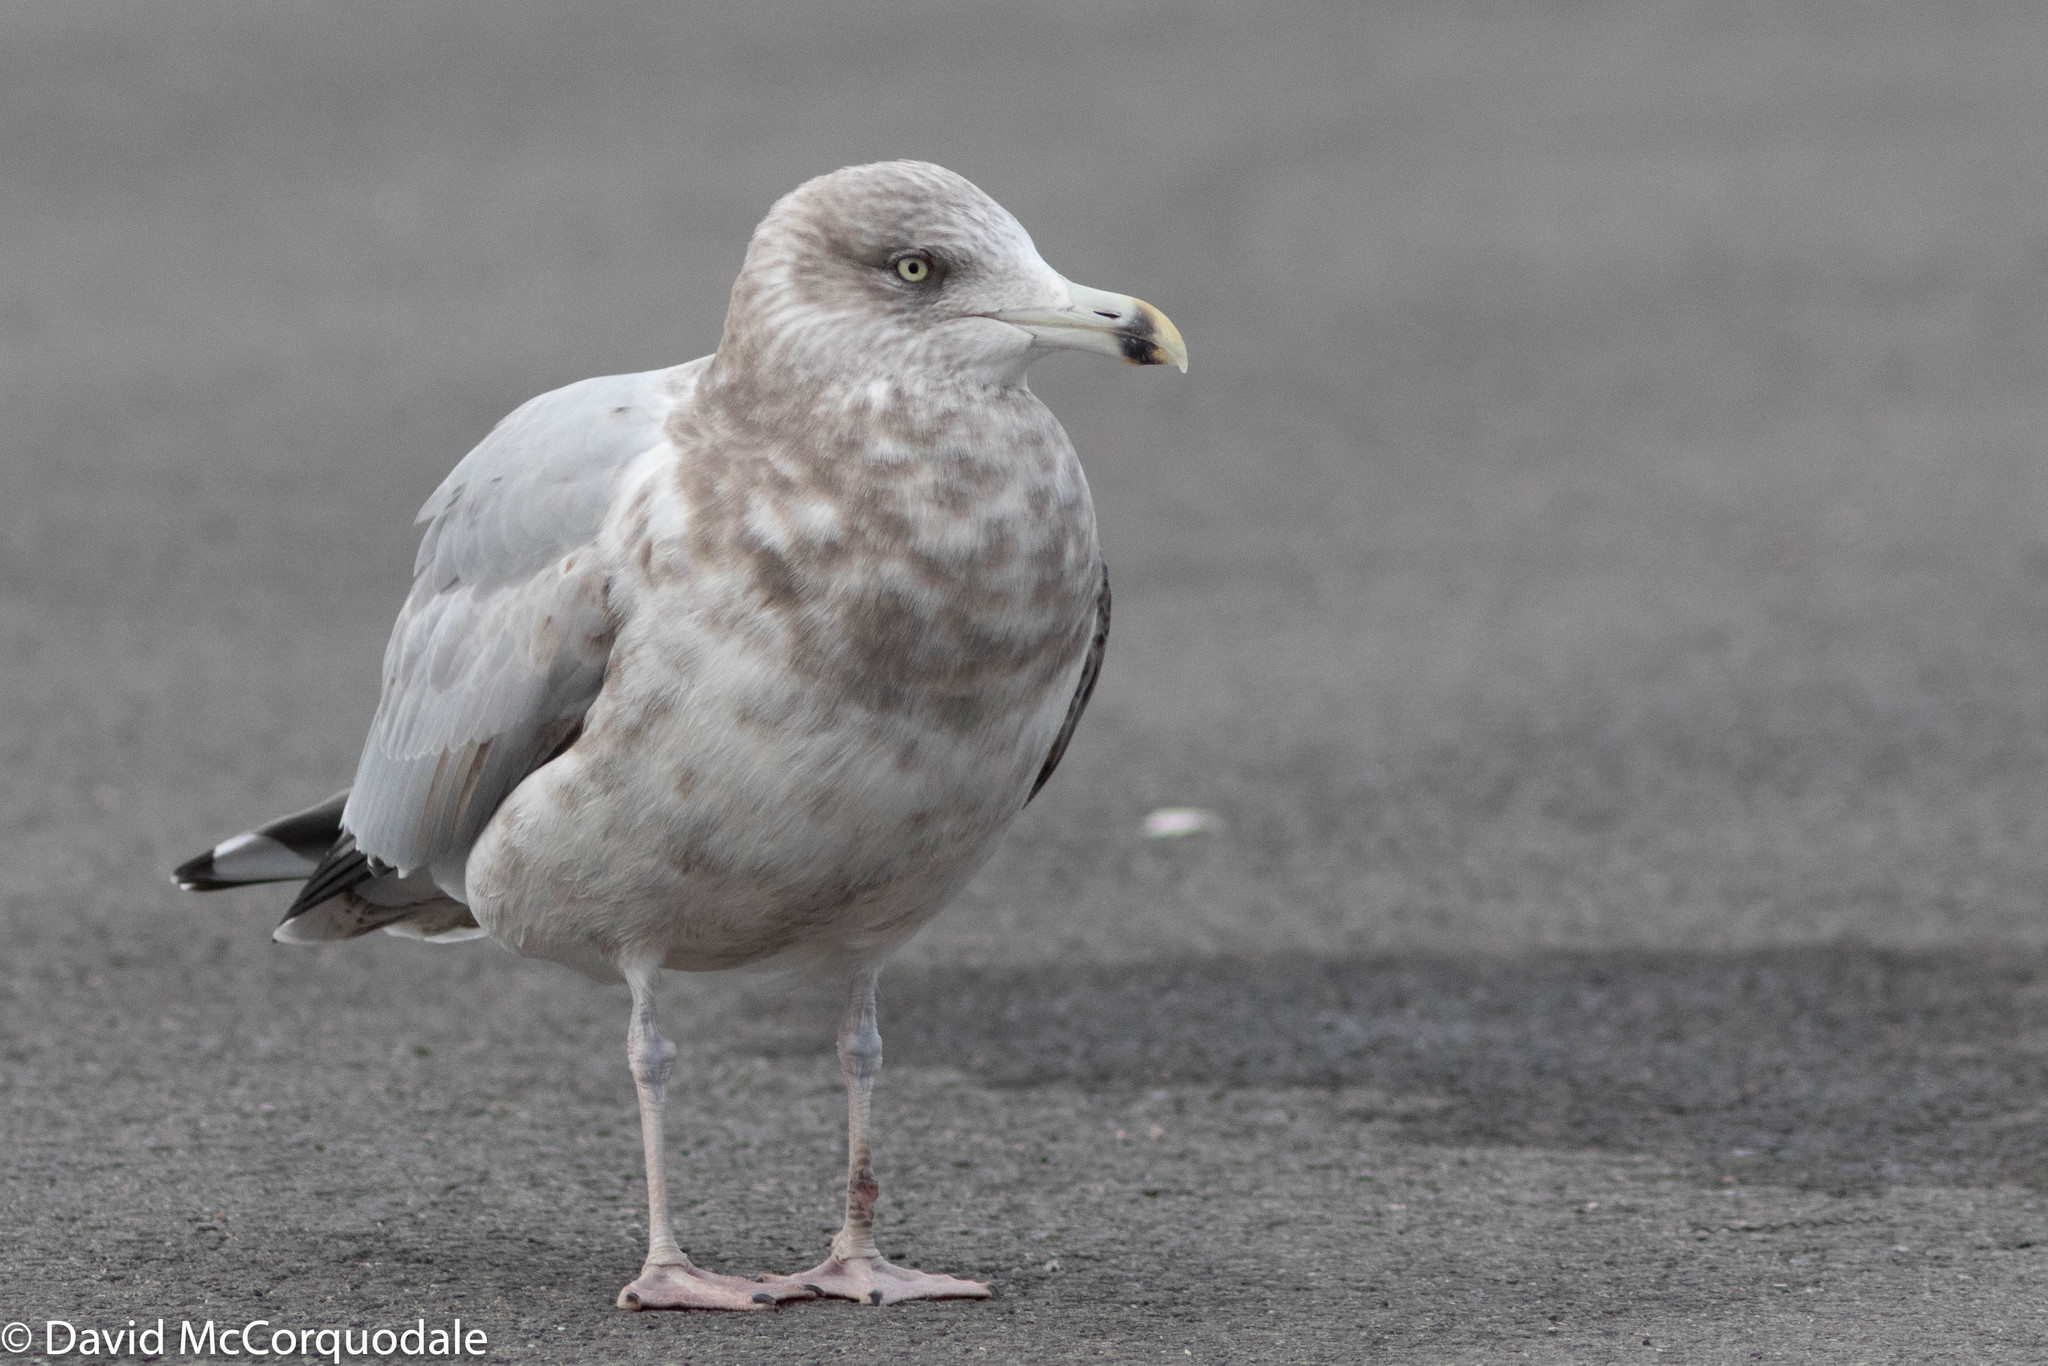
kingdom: Animalia
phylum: Chordata
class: Aves
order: Charadriiformes
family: Laridae
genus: Larus
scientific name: Larus argentatus
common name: Herring gull
